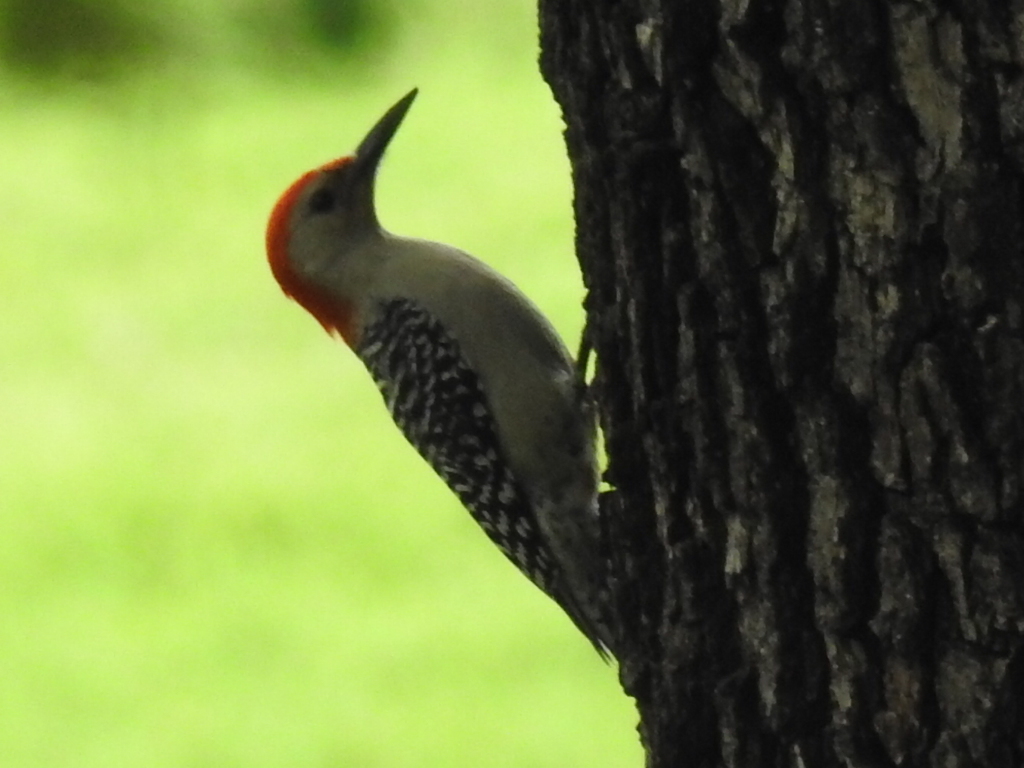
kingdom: Animalia
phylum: Chordata
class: Aves
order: Piciformes
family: Picidae
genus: Melanerpes
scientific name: Melanerpes carolinus
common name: Red-bellied woodpecker
